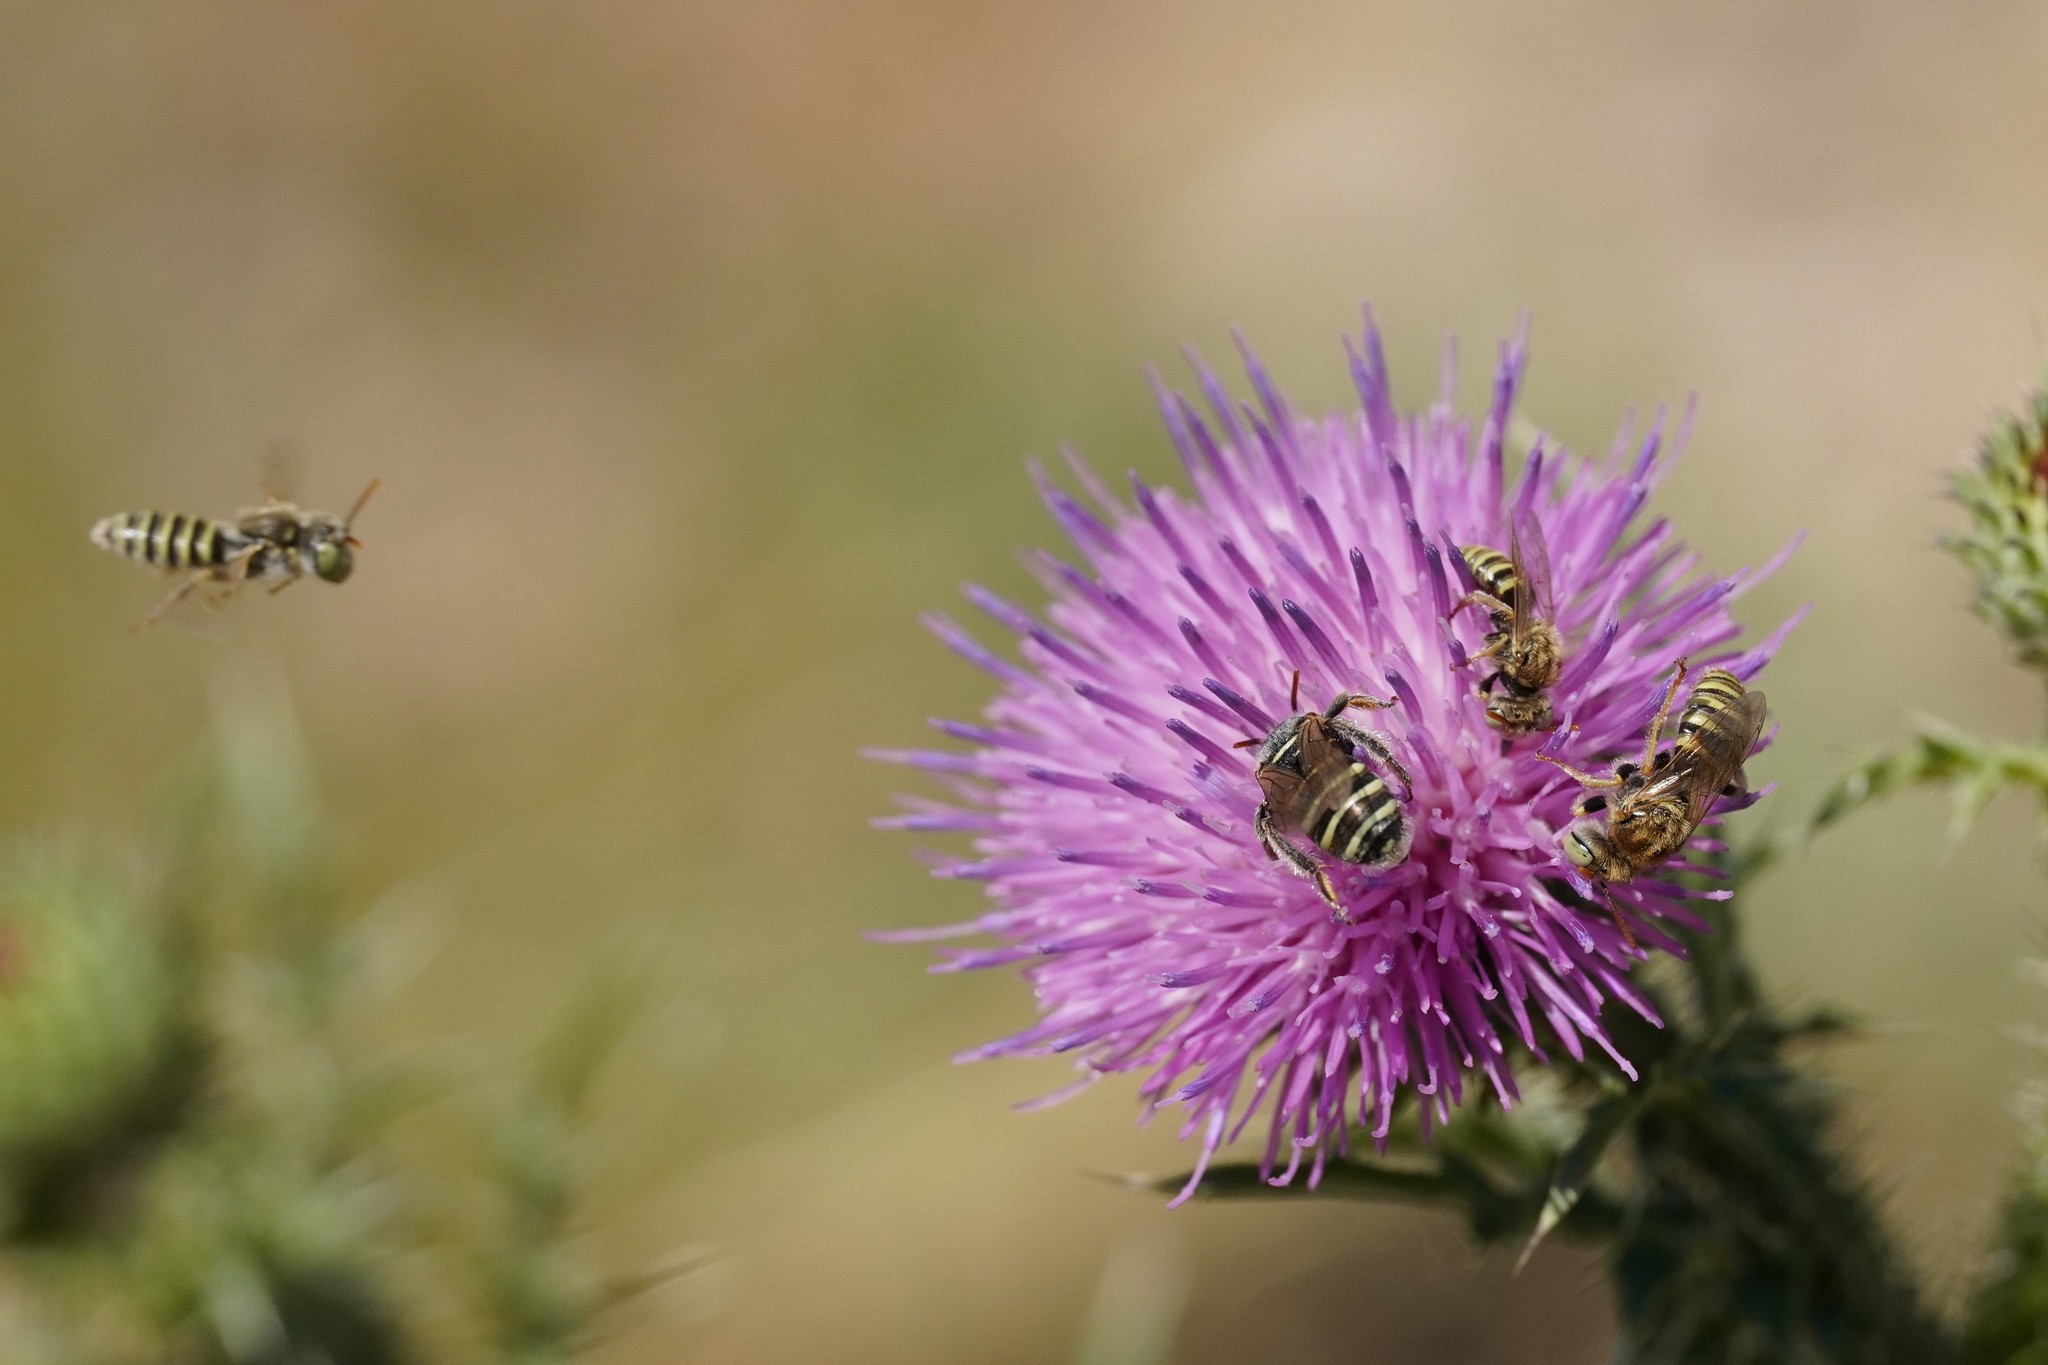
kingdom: Animalia
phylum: Arthropoda
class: Insecta
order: Hymenoptera
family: Andrenidae
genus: Camptopoeum
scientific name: Camptopoeum friesei
